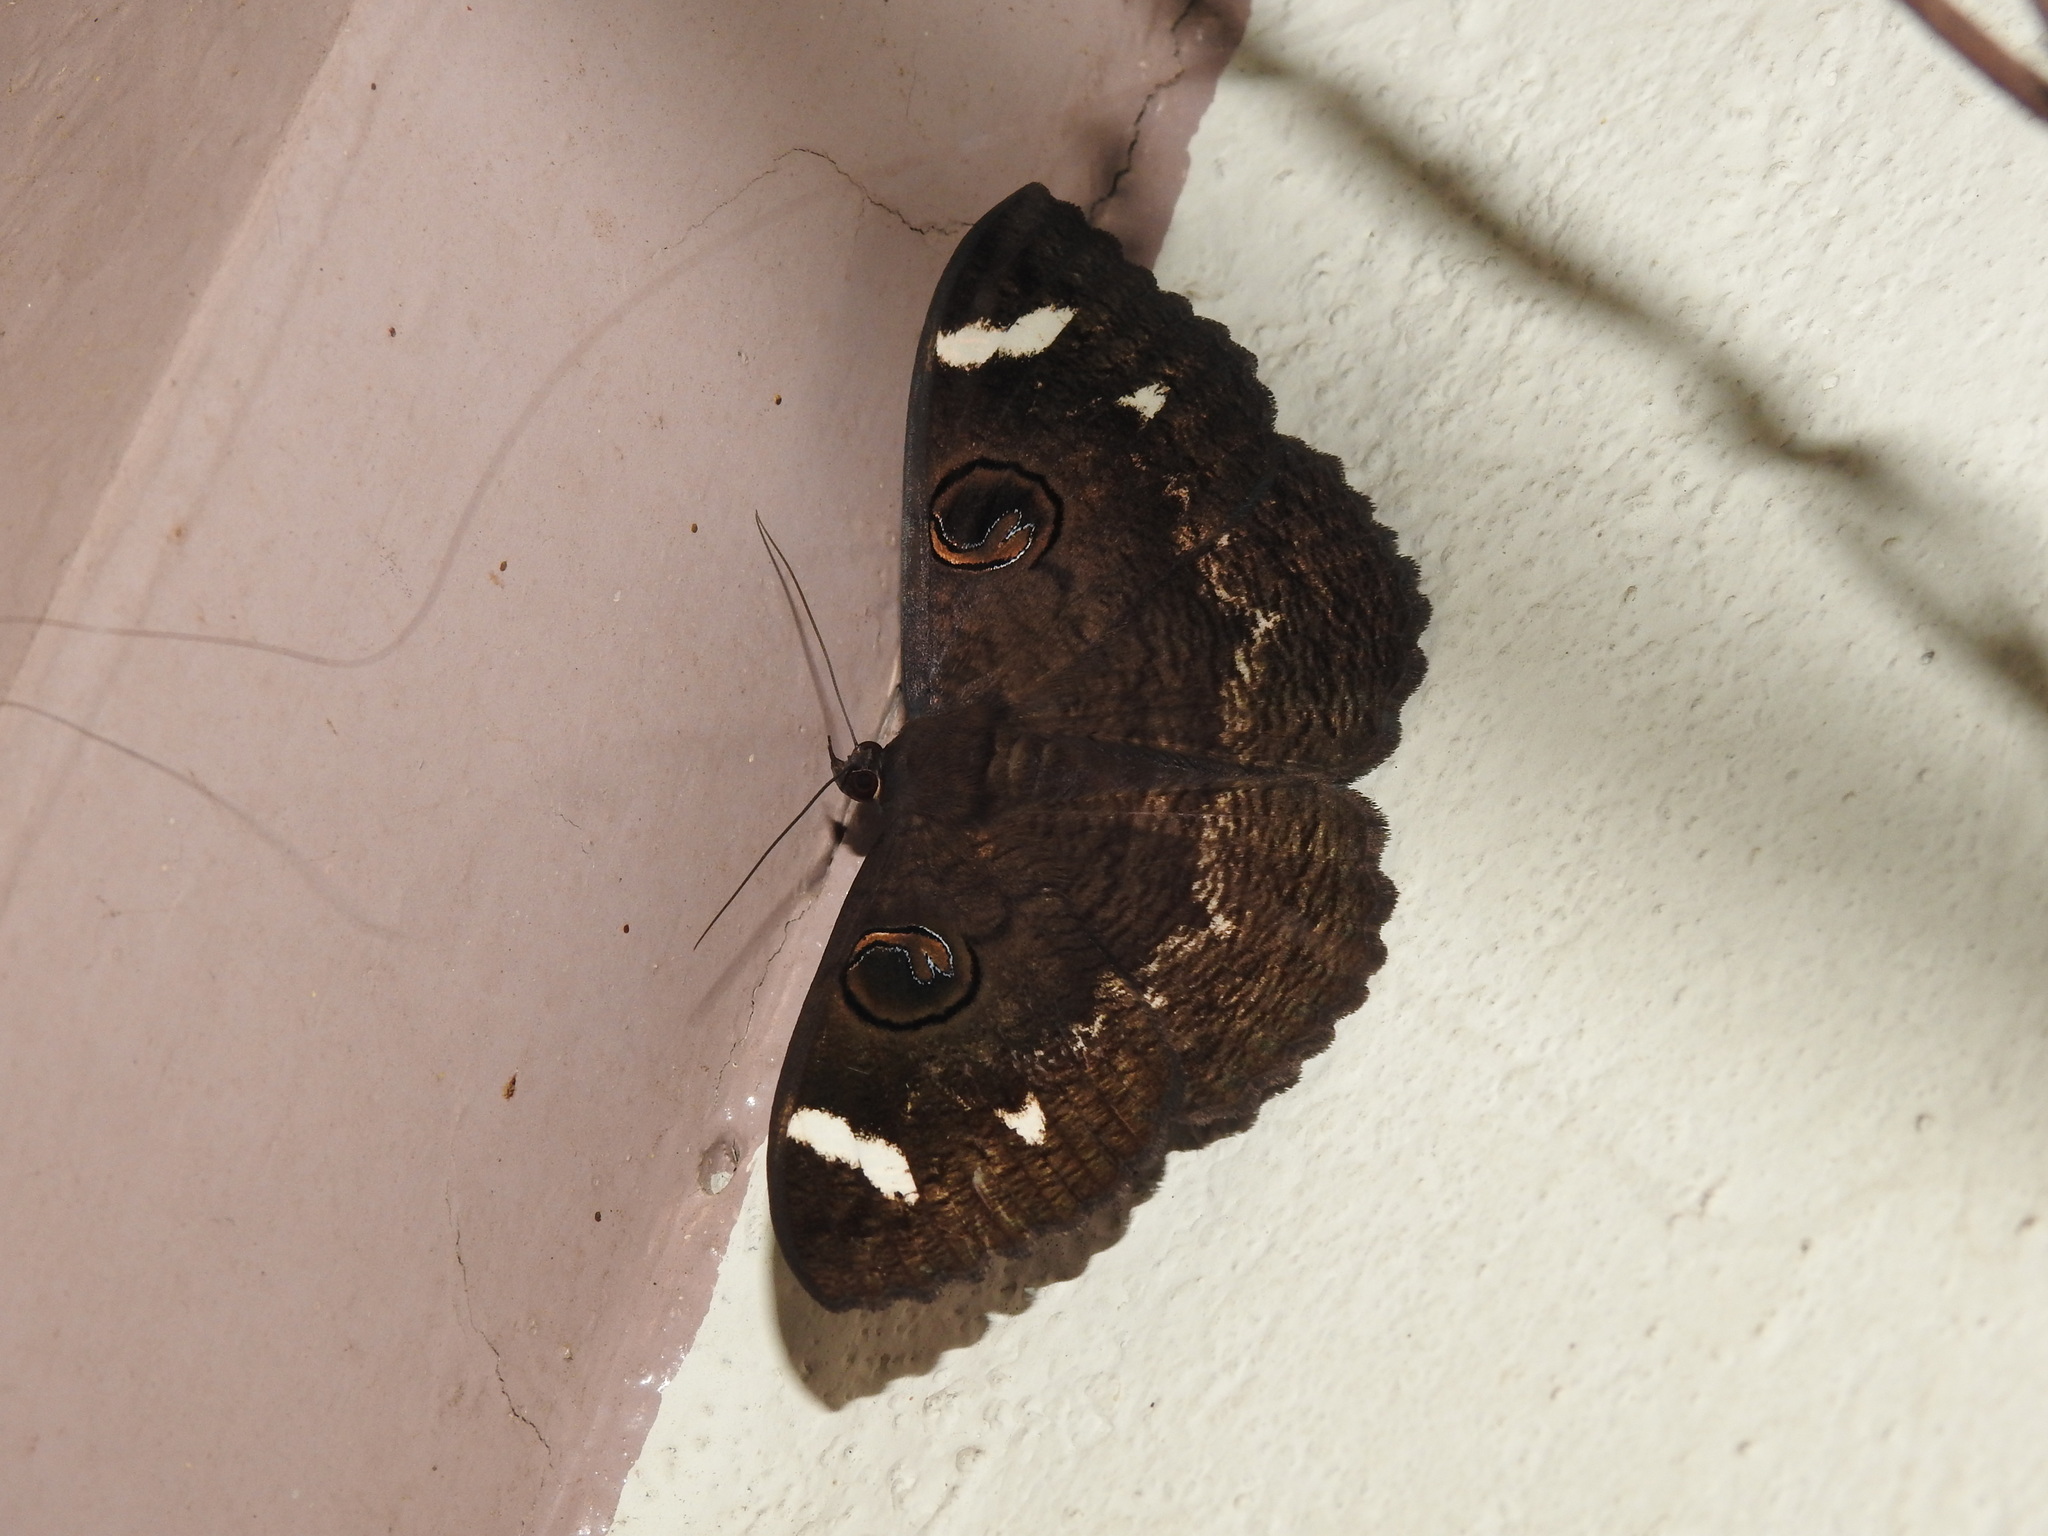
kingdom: Animalia
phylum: Arthropoda
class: Insecta
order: Lepidoptera
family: Erebidae
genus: Erebus
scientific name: Erebus hieroglyphica
